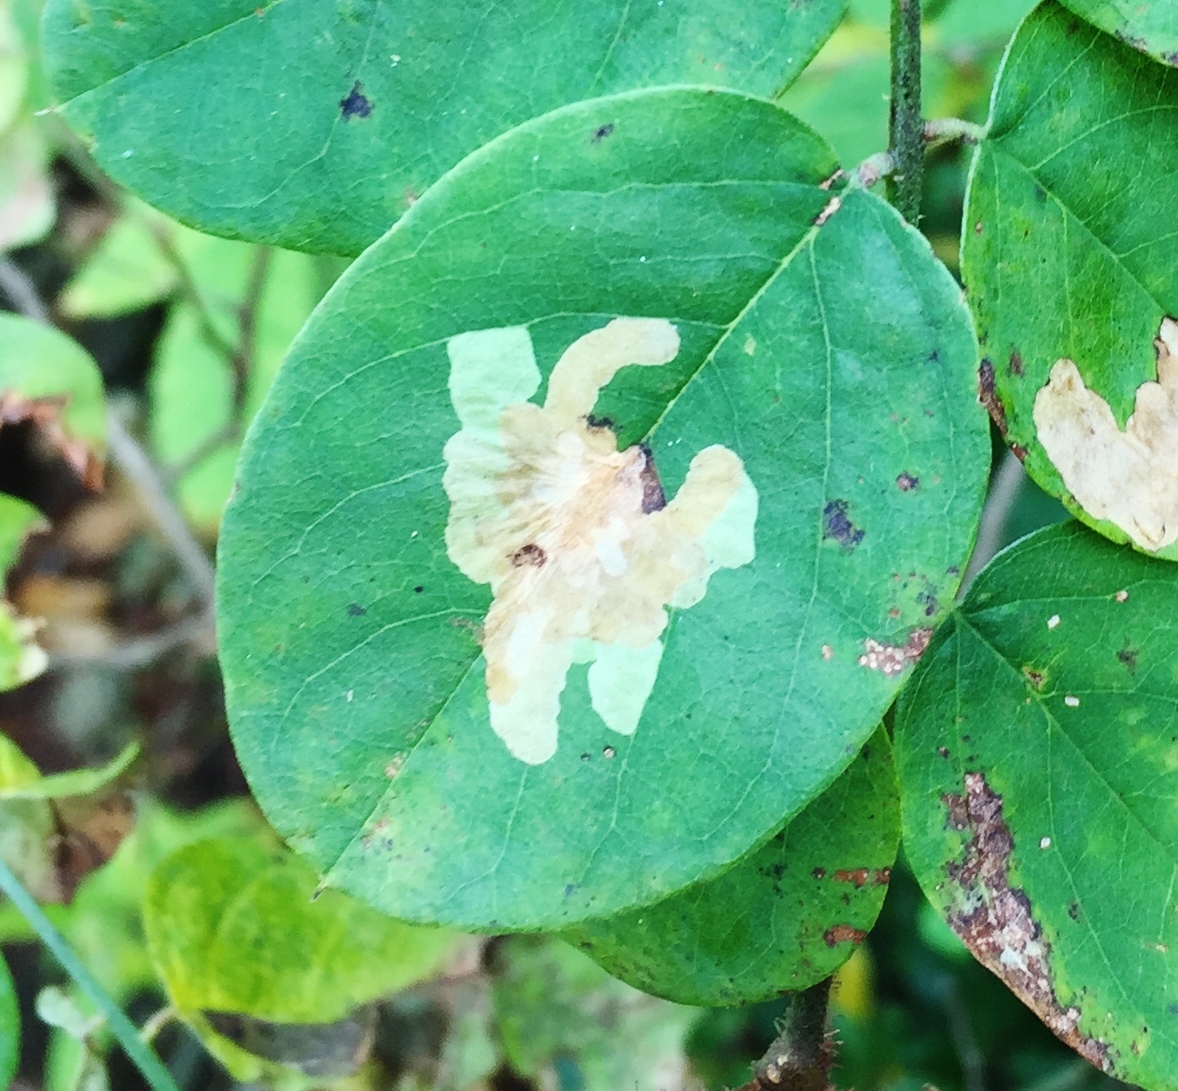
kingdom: Animalia
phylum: Arthropoda
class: Insecta
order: Lepidoptera
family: Gracillariidae
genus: Parectopa
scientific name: Parectopa robiniella
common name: Locust digitate leafminer
